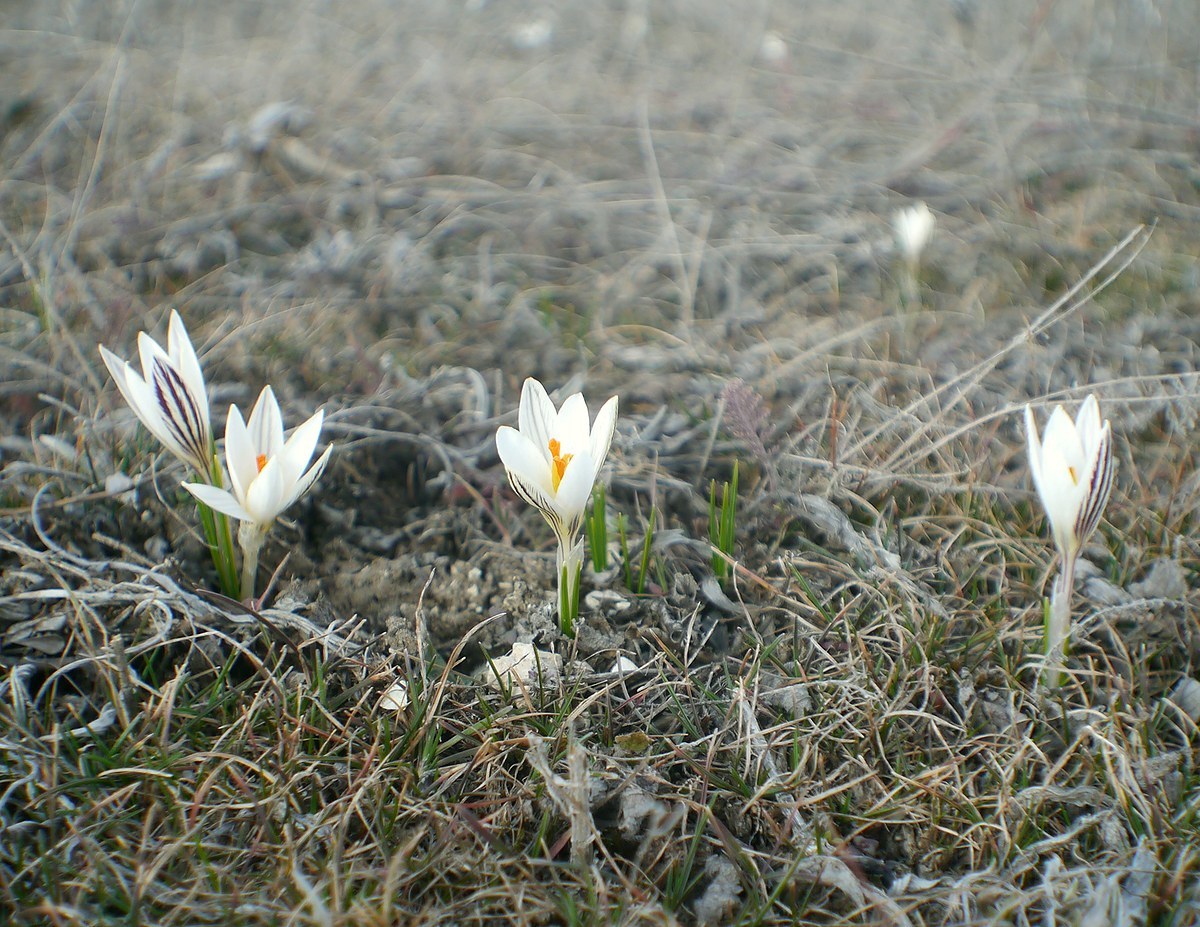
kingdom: Plantae
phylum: Tracheophyta
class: Liliopsida
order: Asparagales
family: Iridaceae
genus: Crocus
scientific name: Crocus reticulatus
